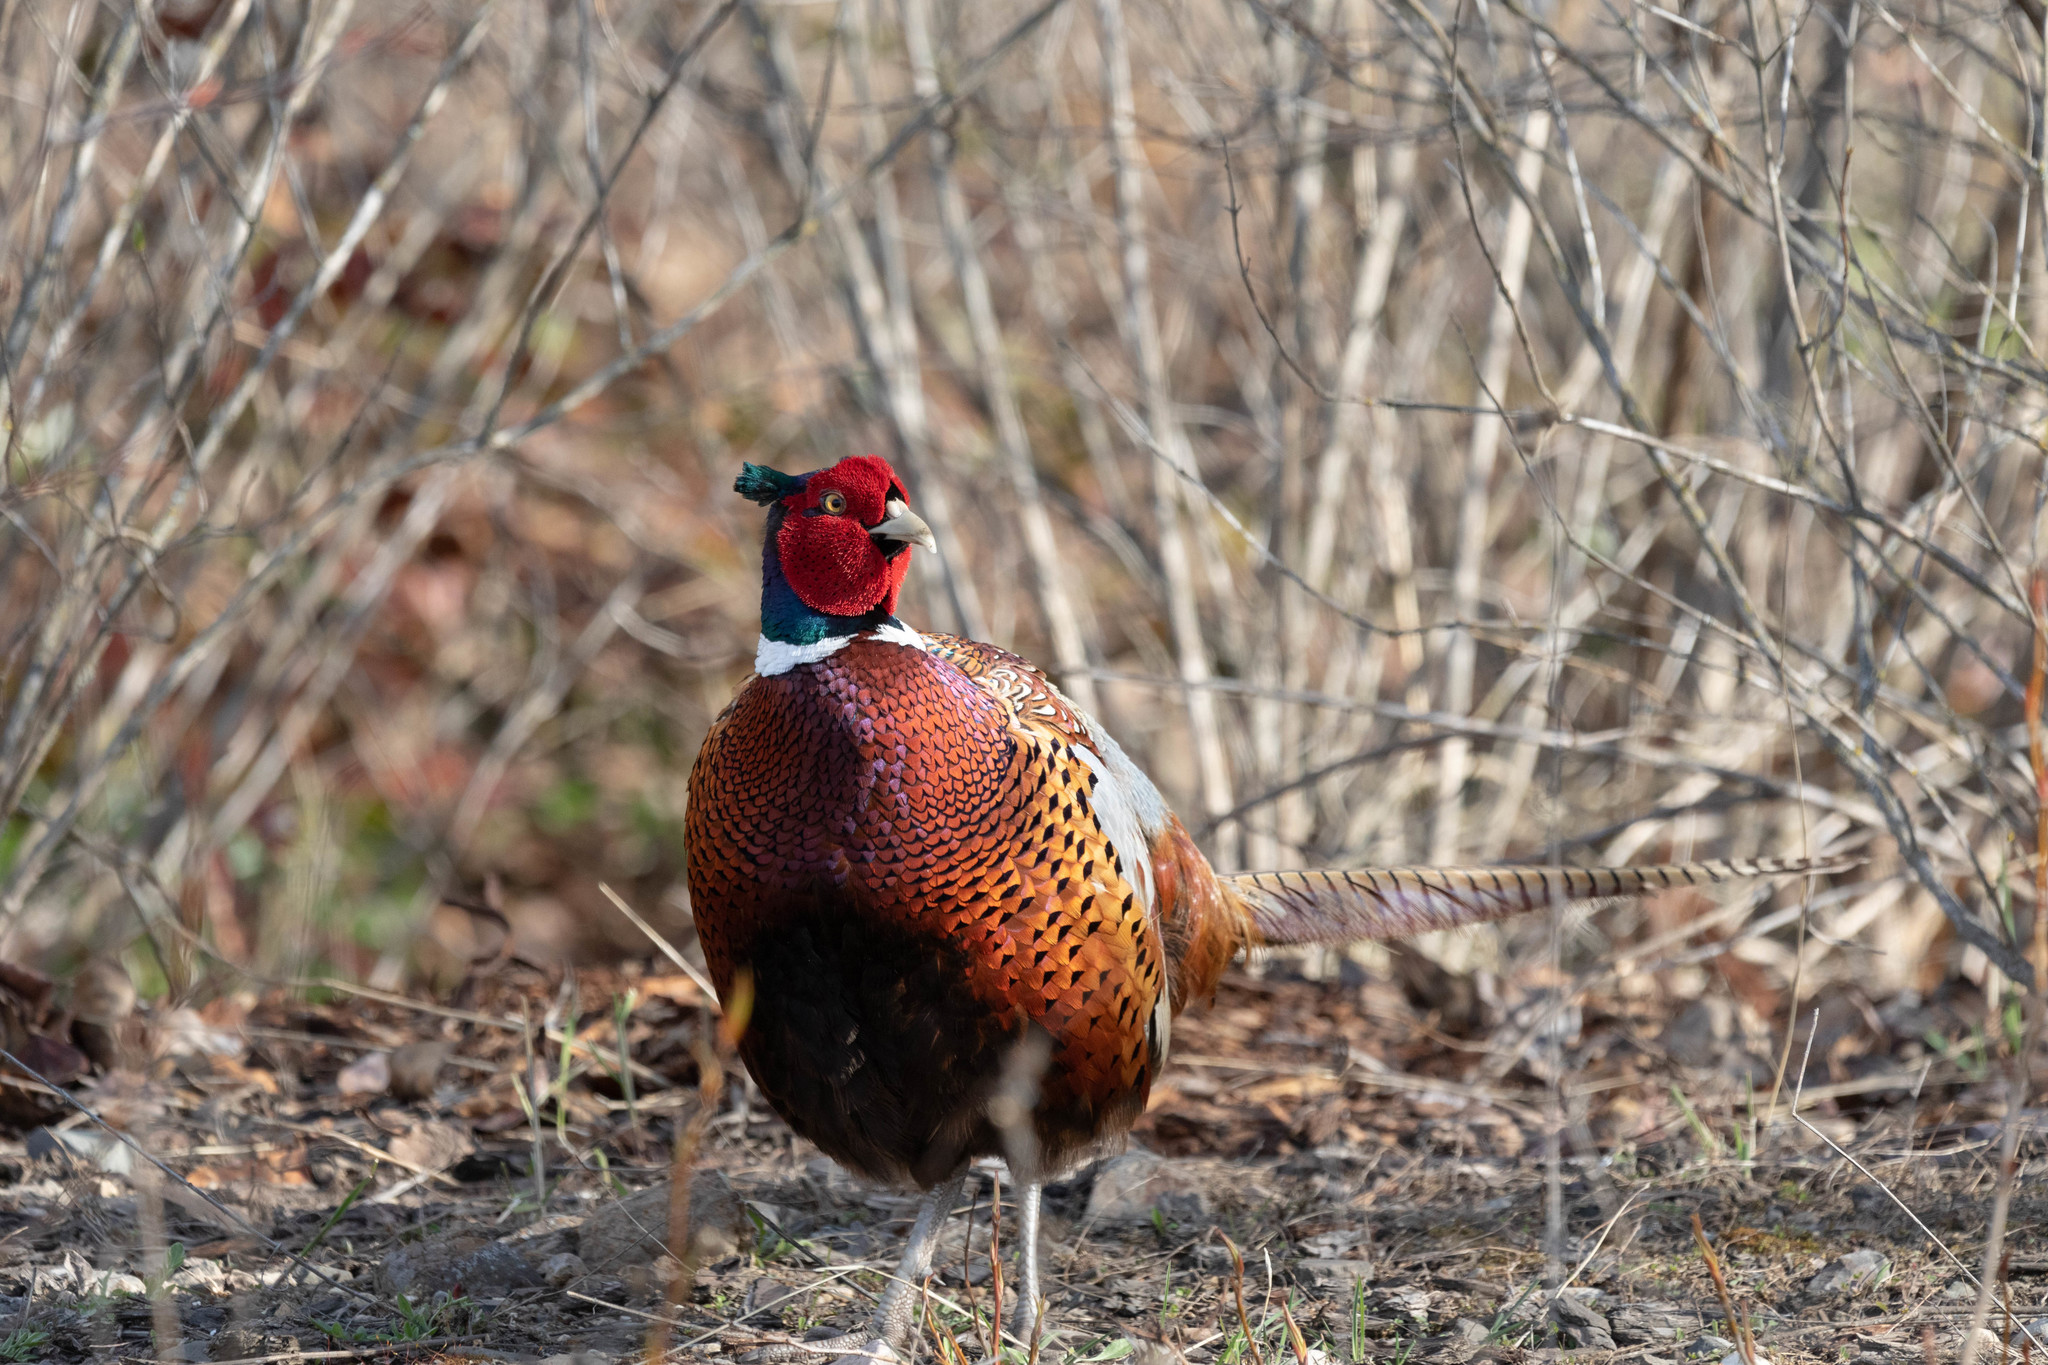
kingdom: Animalia
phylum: Chordata
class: Aves
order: Galliformes
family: Phasianidae
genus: Phasianus
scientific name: Phasianus colchicus
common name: Common pheasant
